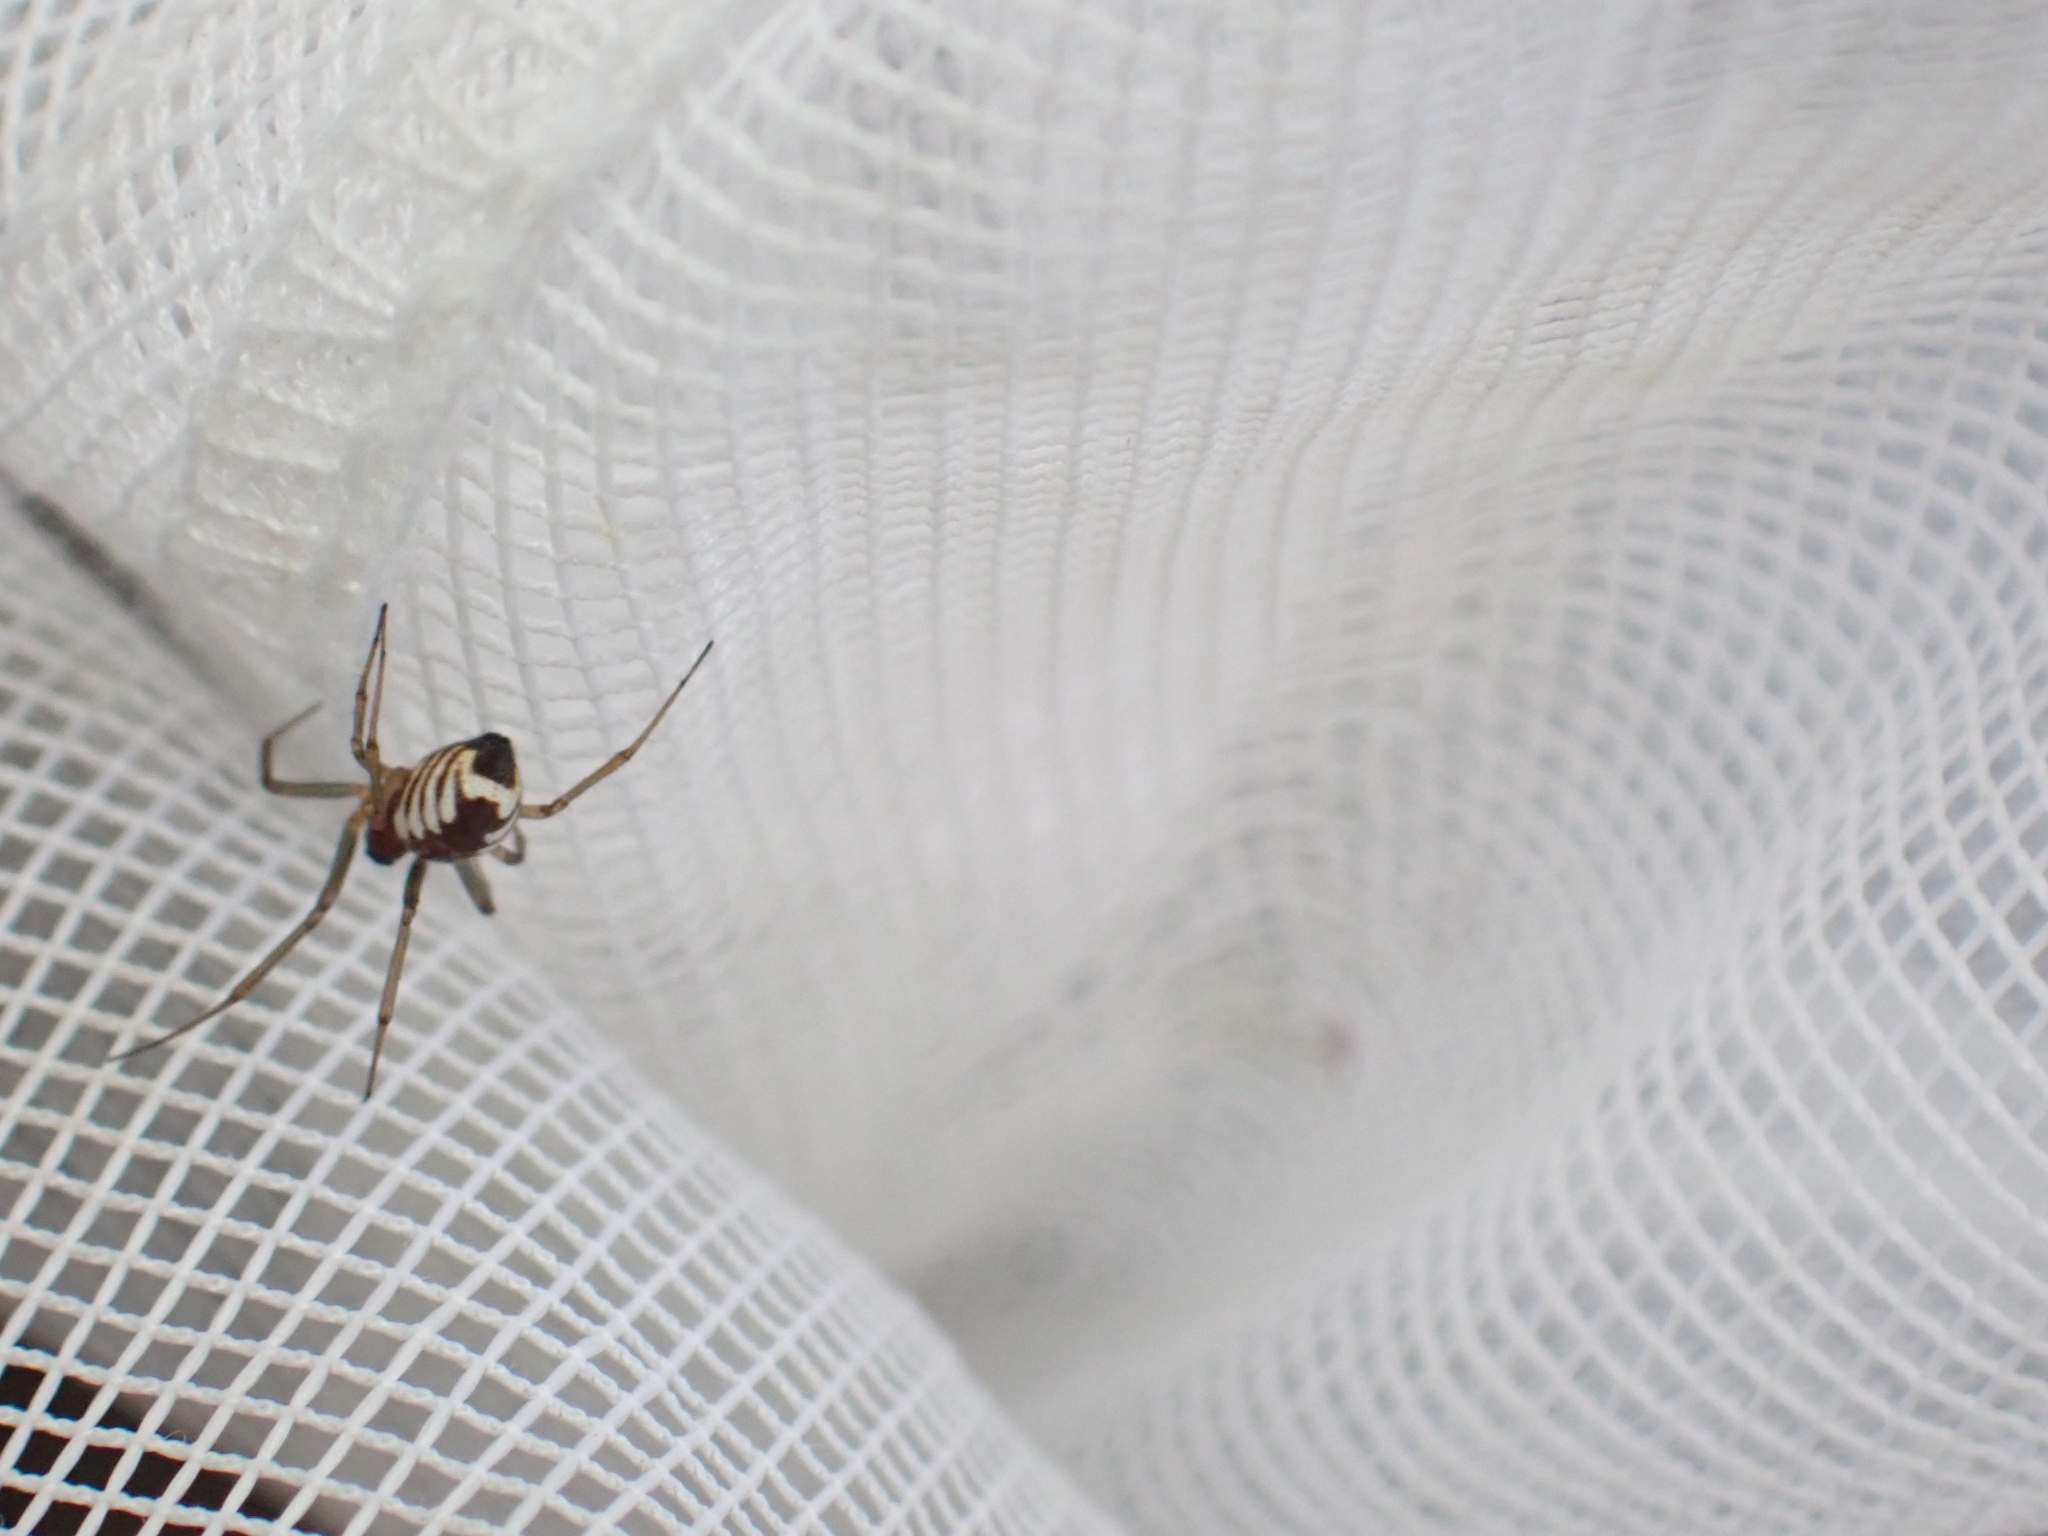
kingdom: Animalia
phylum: Arthropoda
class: Arachnida
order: Araneae
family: Linyphiidae
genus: Frontinella
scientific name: Frontinella pyramitela
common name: Bowl-and-doily spider
